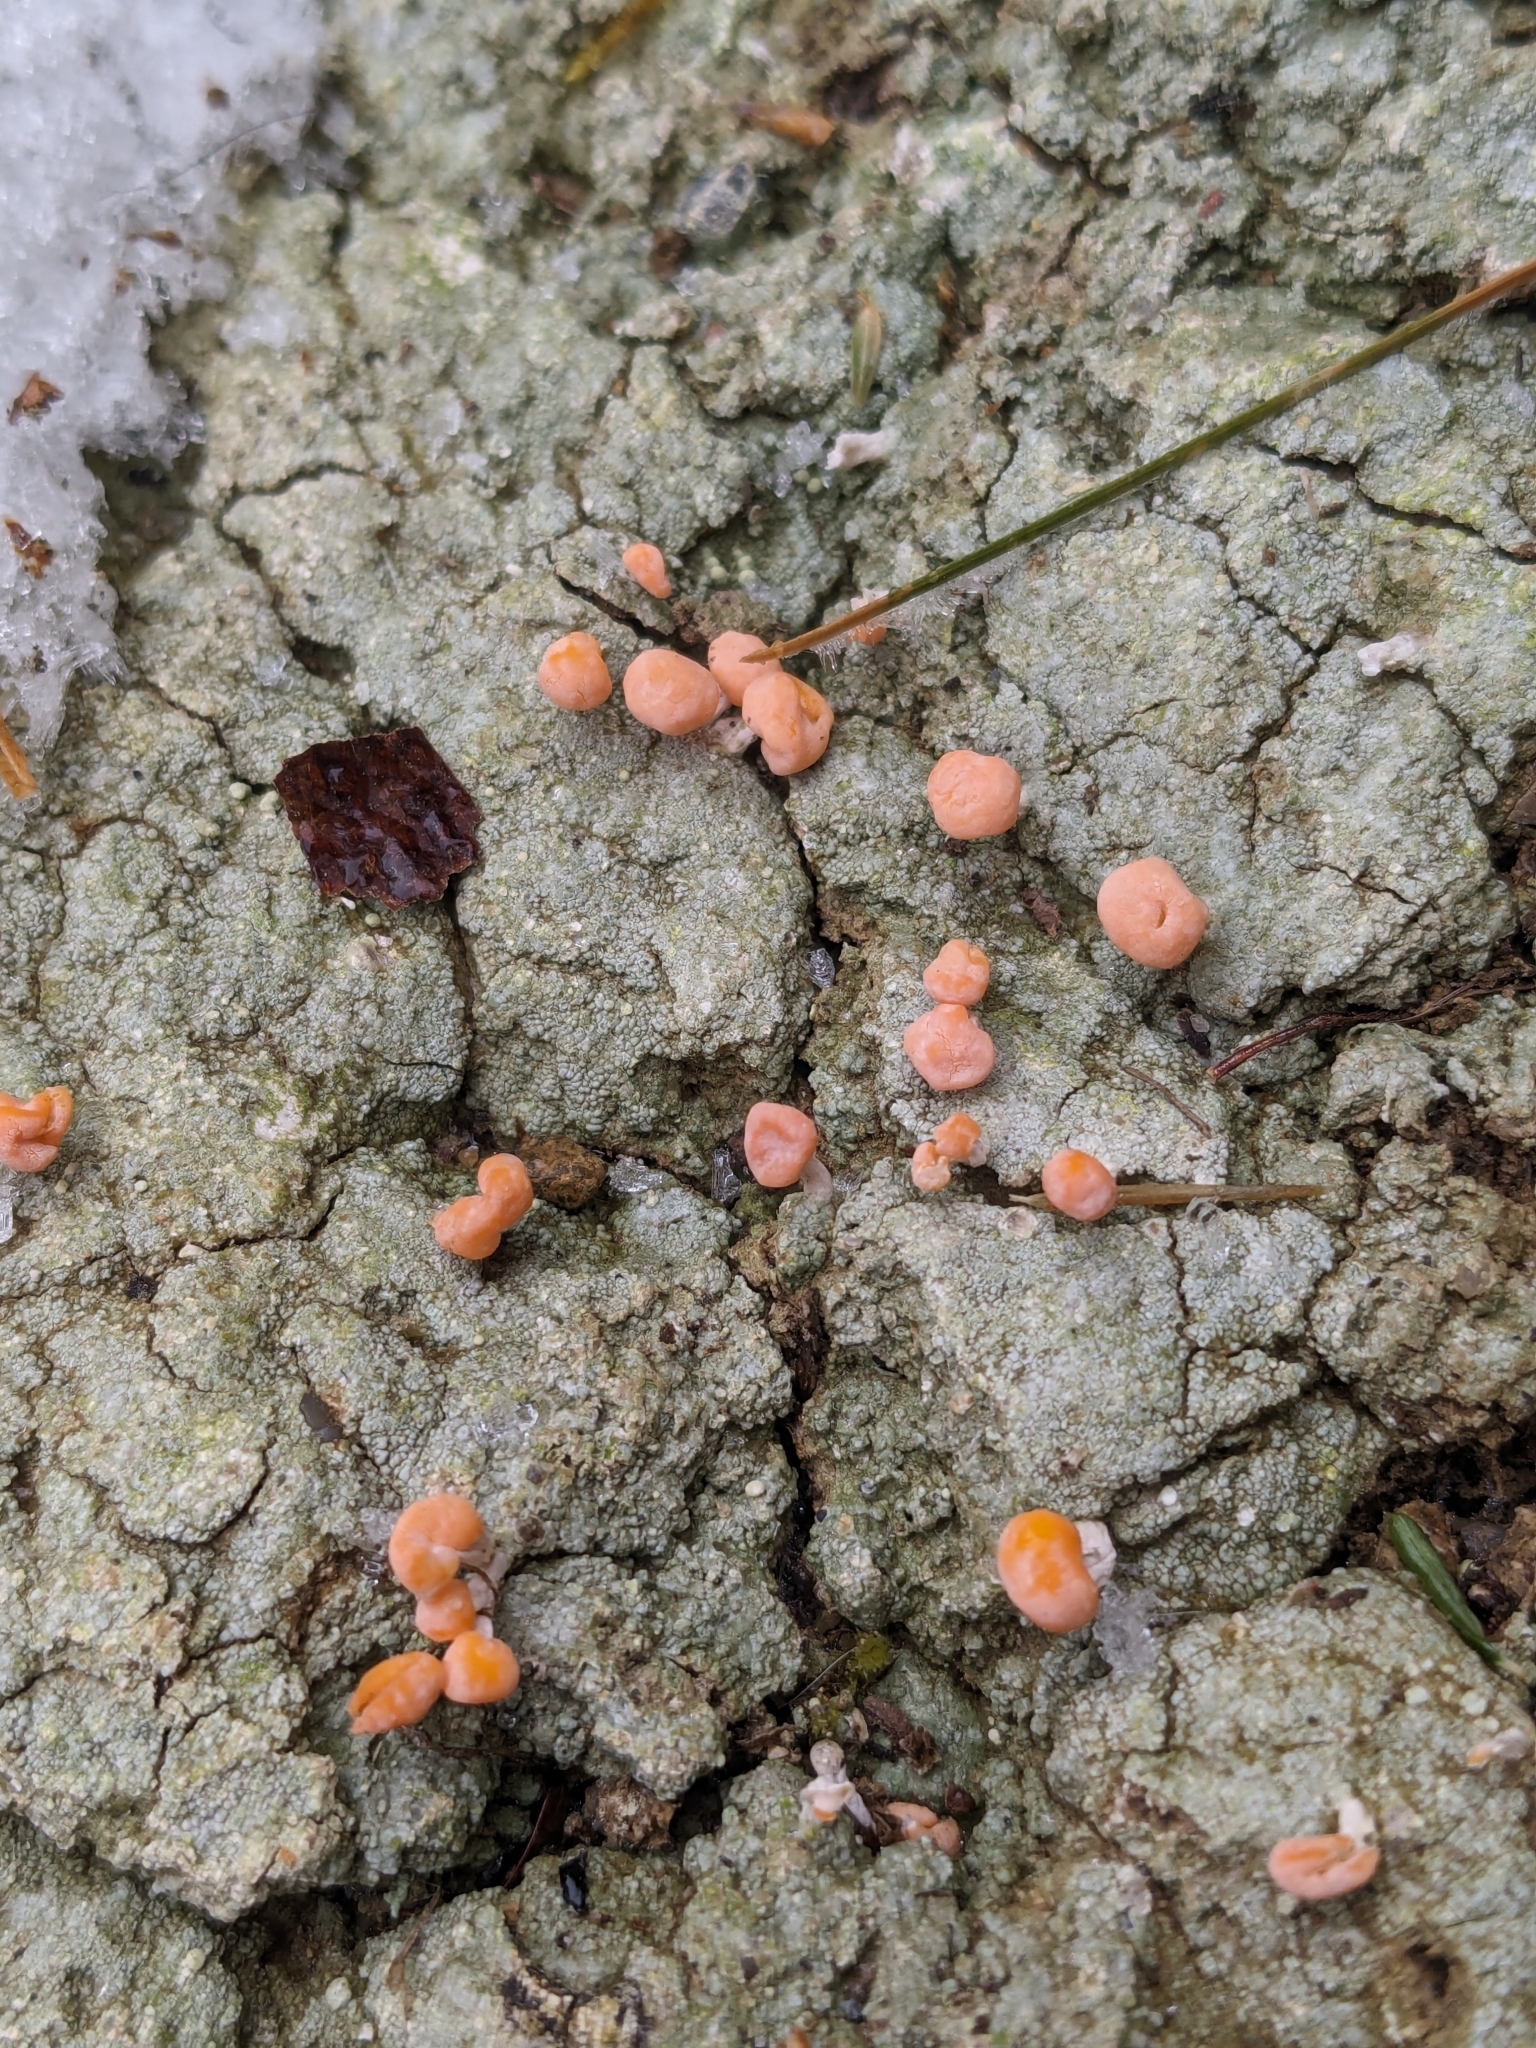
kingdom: Fungi
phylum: Ascomycota
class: Lecanoromycetes
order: Pertusariales
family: Icmadophilaceae
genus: Dibaeis
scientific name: Dibaeis baeomyces
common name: Pink earth lichen
